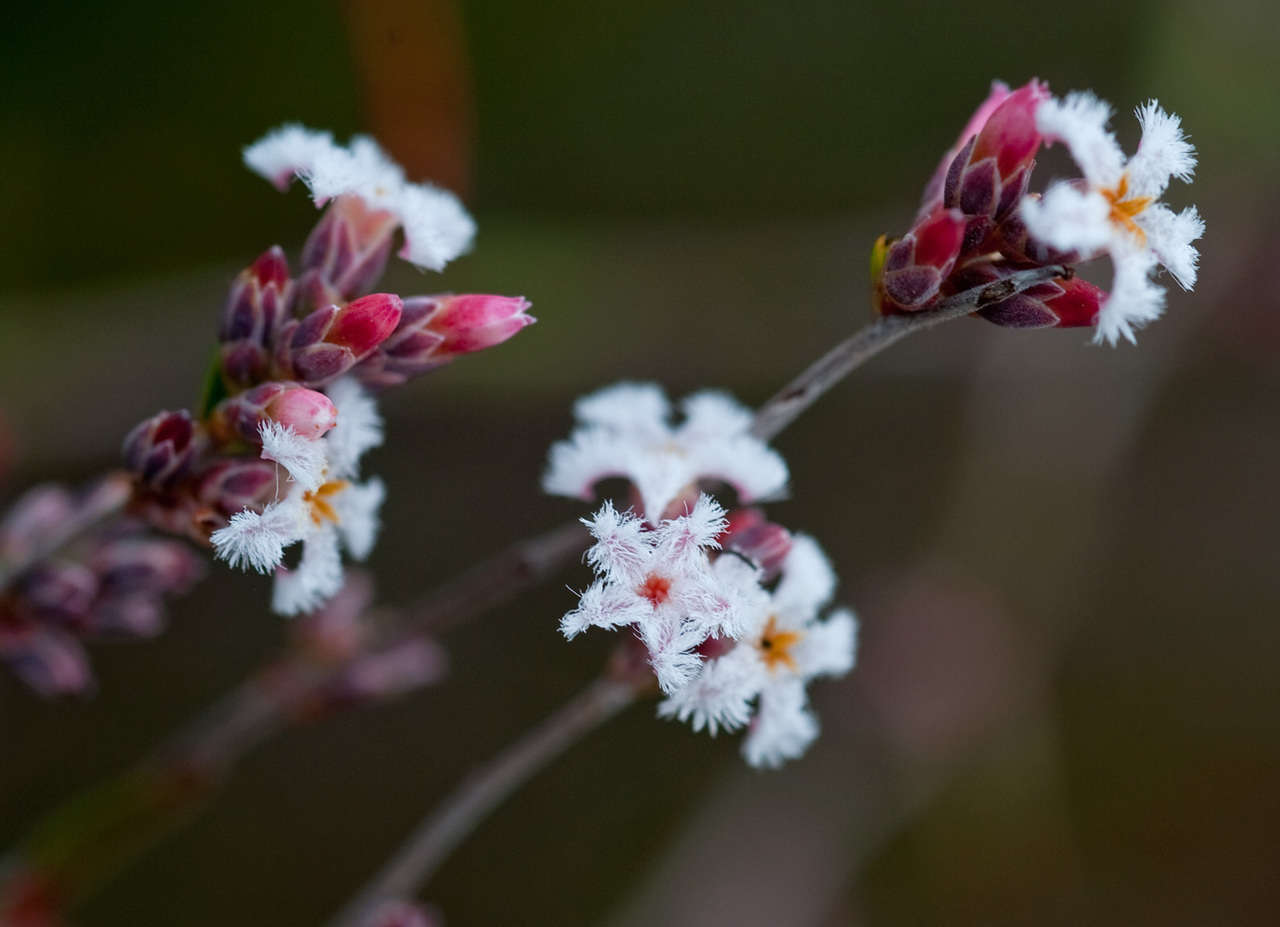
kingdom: Plantae
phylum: Tracheophyta
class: Magnoliopsida
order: Ericales
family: Ericaceae
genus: Leucopogon
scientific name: Leucopogon virgatus
